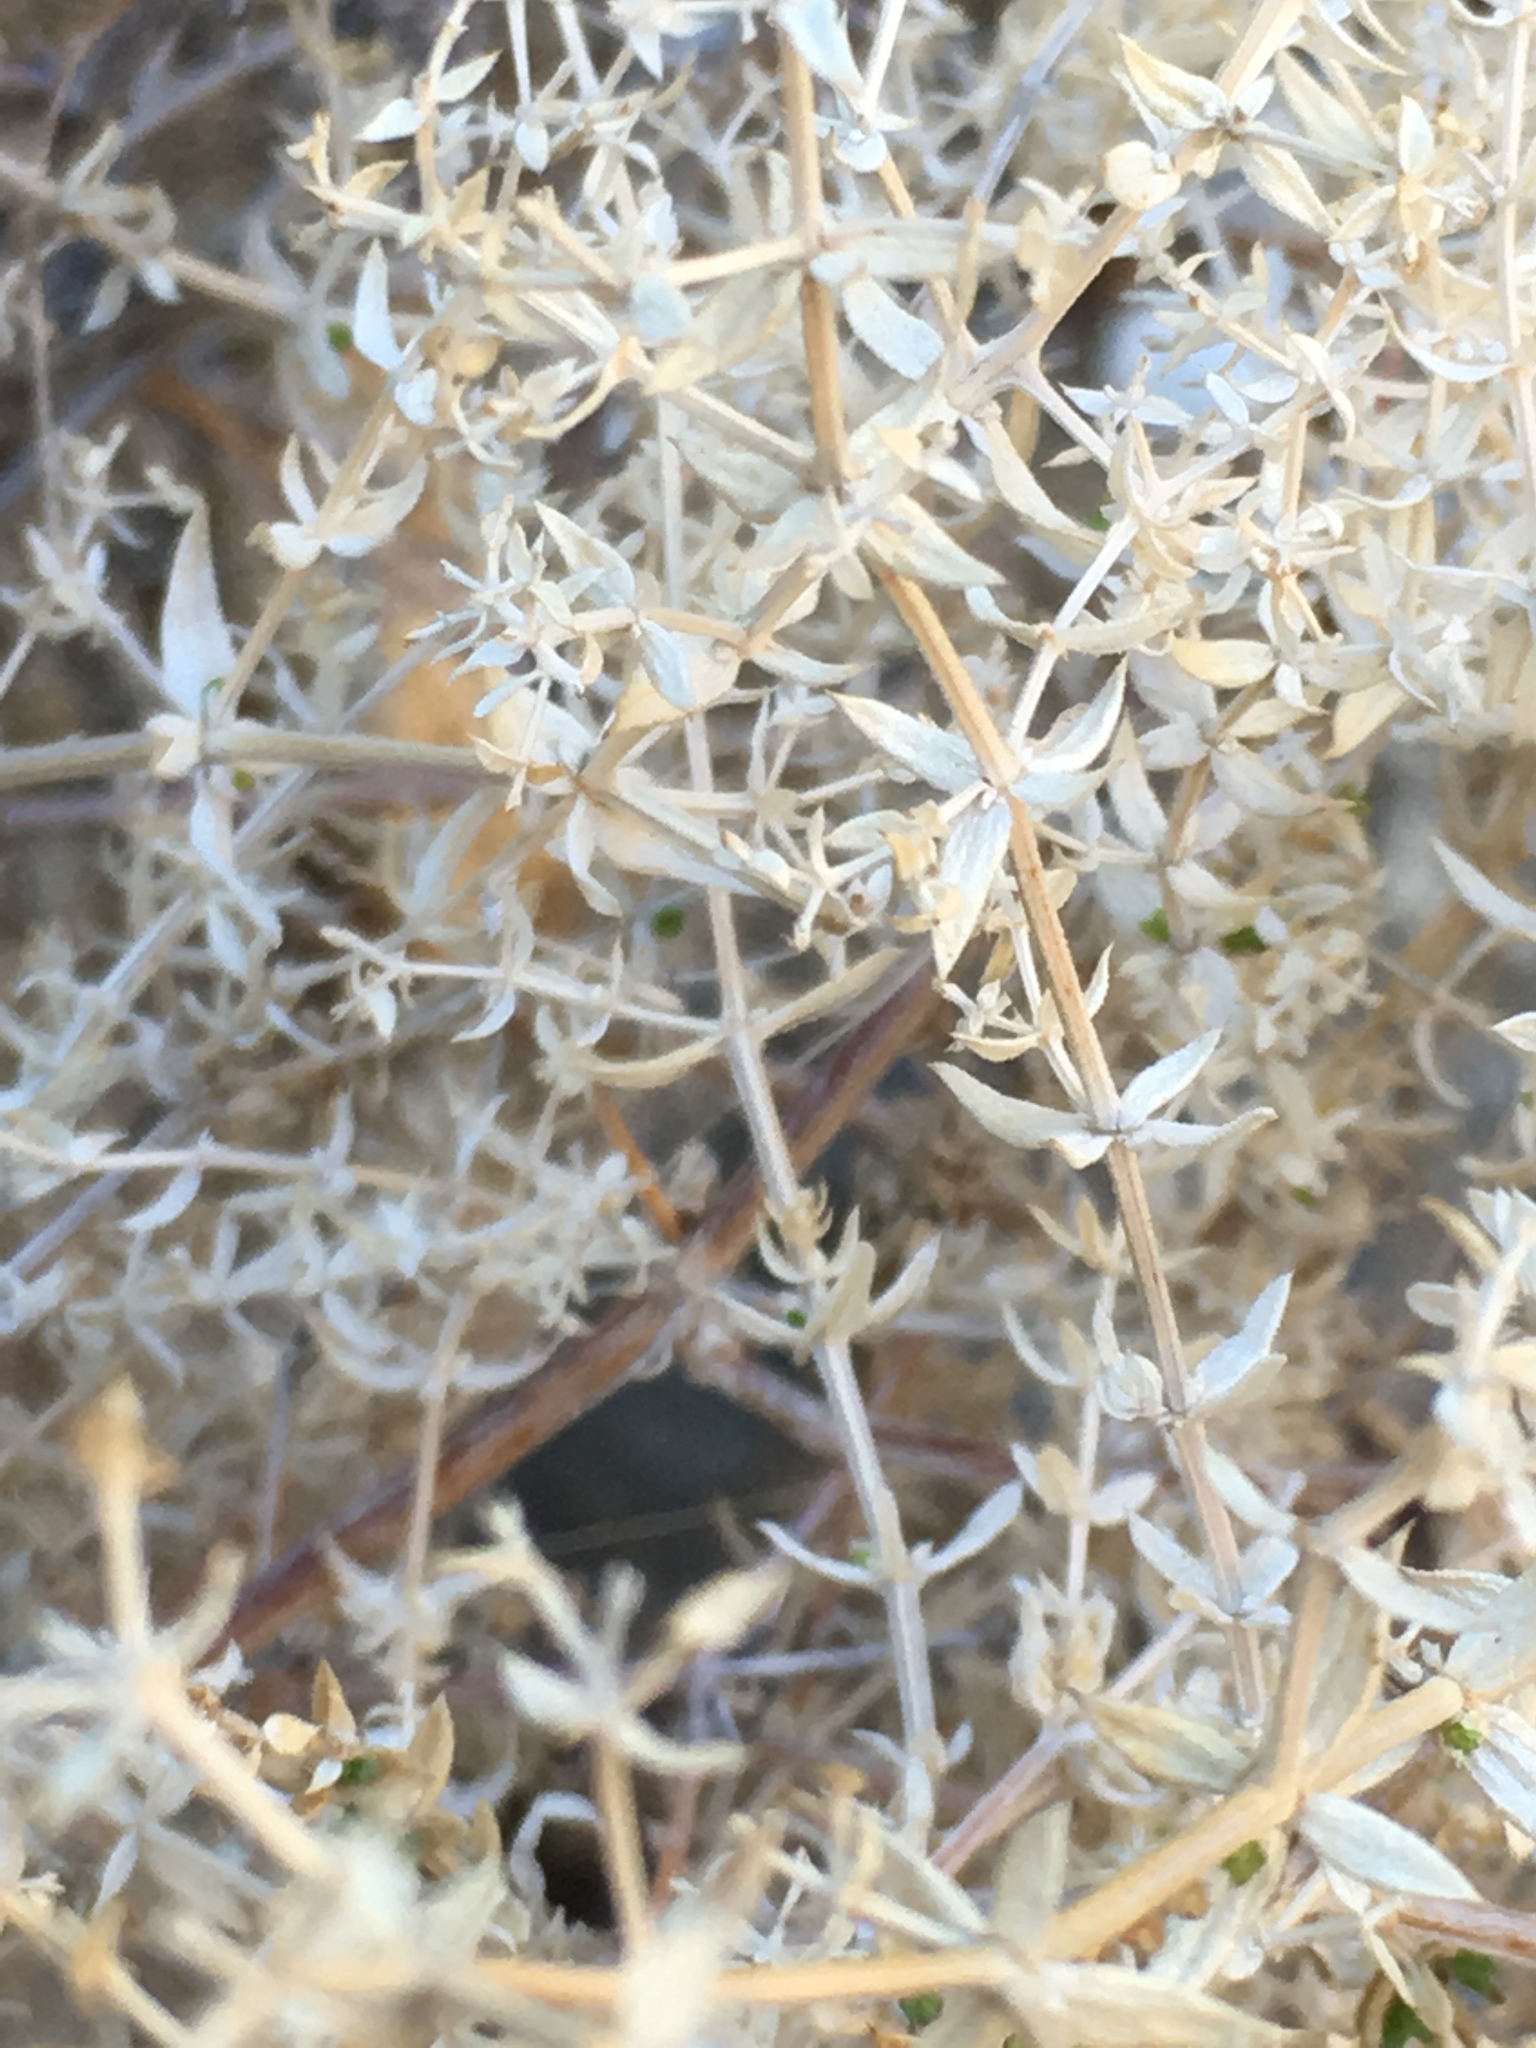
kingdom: Plantae
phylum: Tracheophyta
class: Magnoliopsida
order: Gentianales
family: Rubiaceae
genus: Galium
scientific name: Galium stellatum
